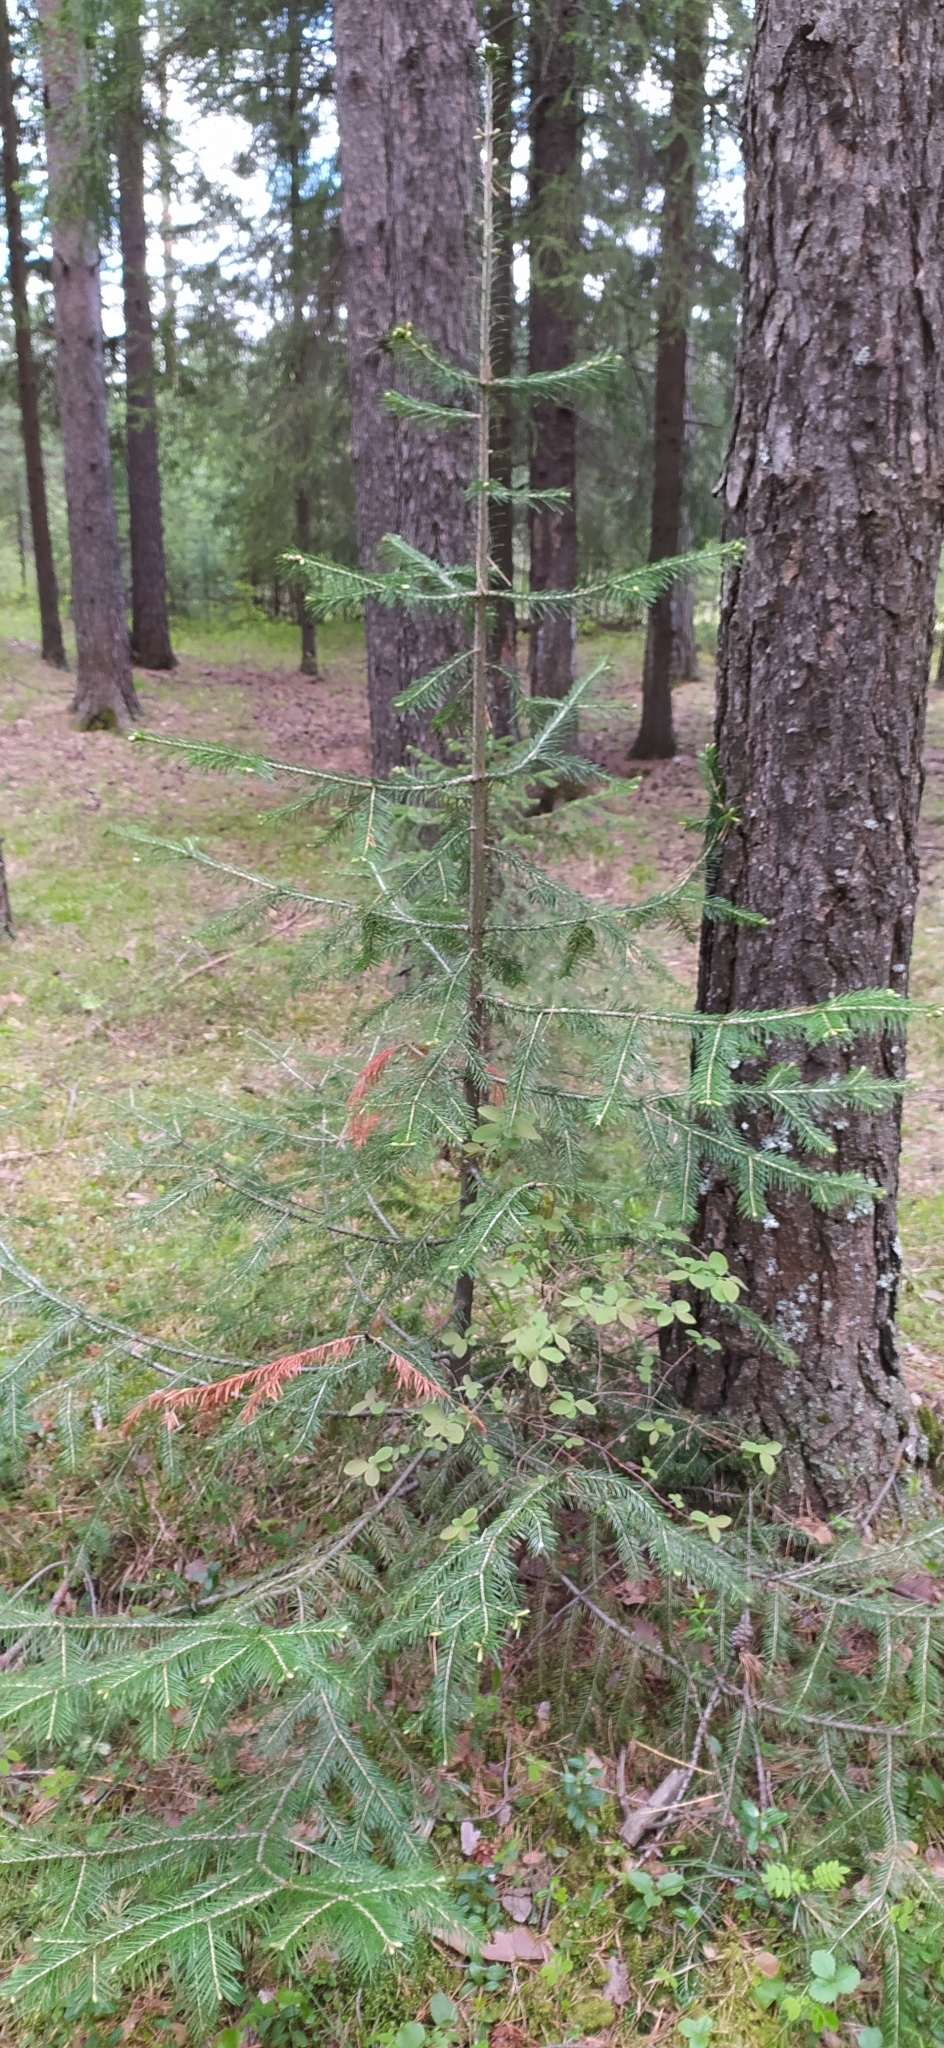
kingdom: Plantae
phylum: Tracheophyta
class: Pinopsida
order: Pinales
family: Pinaceae
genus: Abies
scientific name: Abies sibirica
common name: Siberian fir
